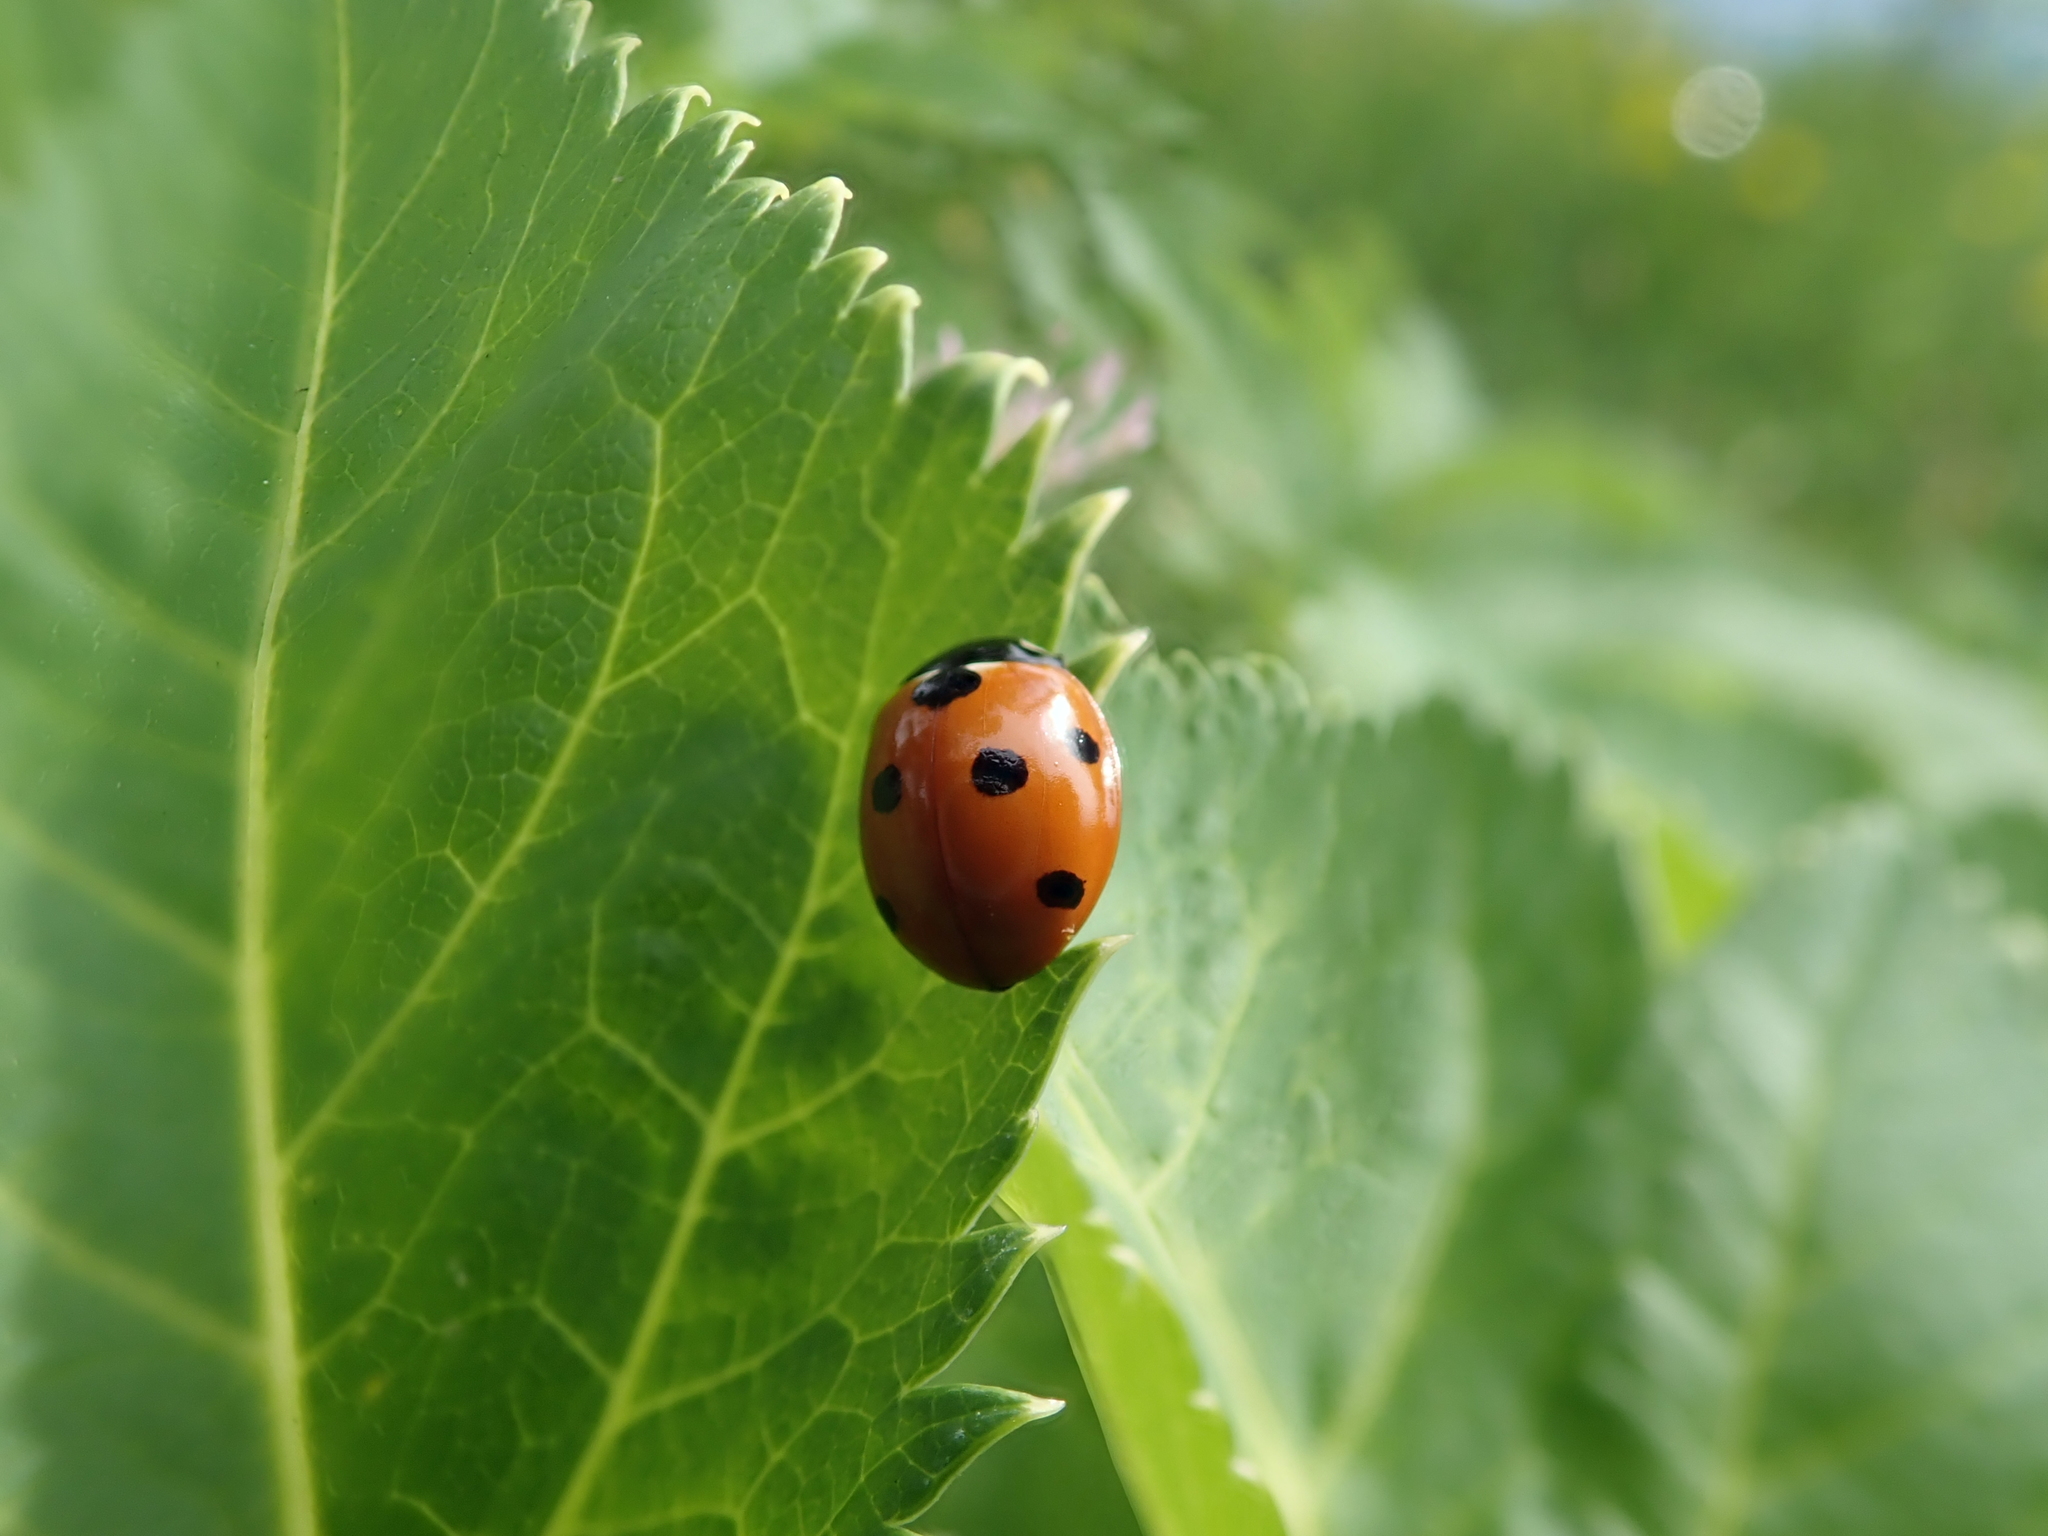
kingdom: Animalia
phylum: Arthropoda
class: Insecta
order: Coleoptera
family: Coccinellidae
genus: Coccinella
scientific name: Coccinella septempunctata
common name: Sevenspotted lady beetle
